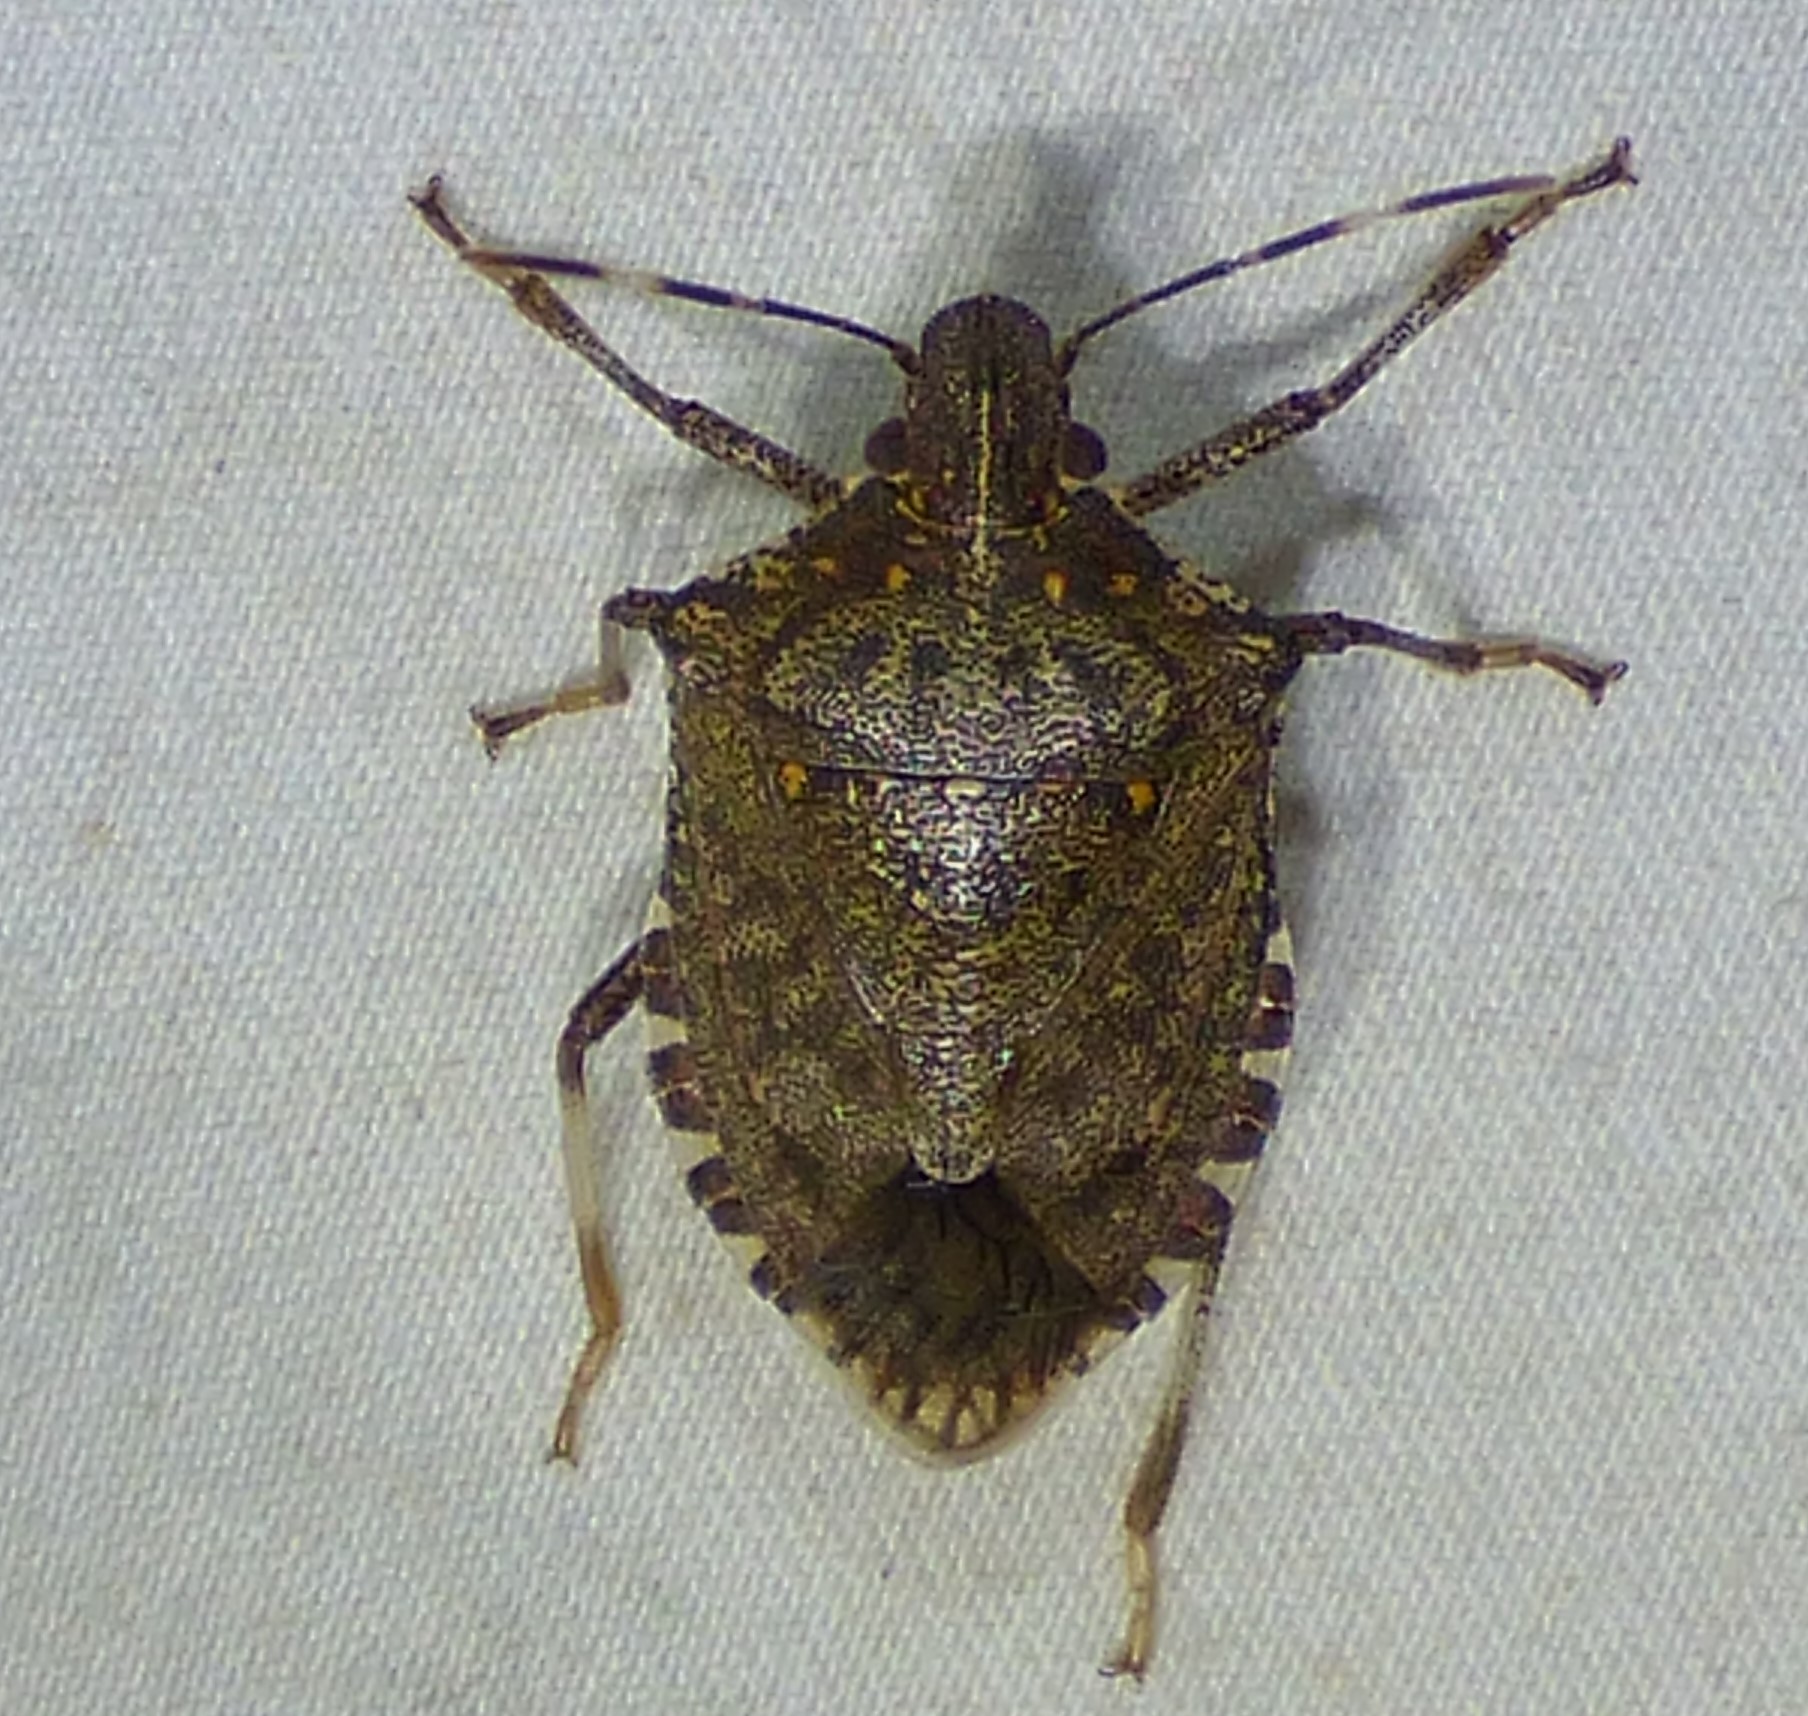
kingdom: Animalia
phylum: Arthropoda
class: Insecta
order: Hemiptera
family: Pentatomidae
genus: Halyomorpha
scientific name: Halyomorpha halys
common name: Brown marmorated stink bug
